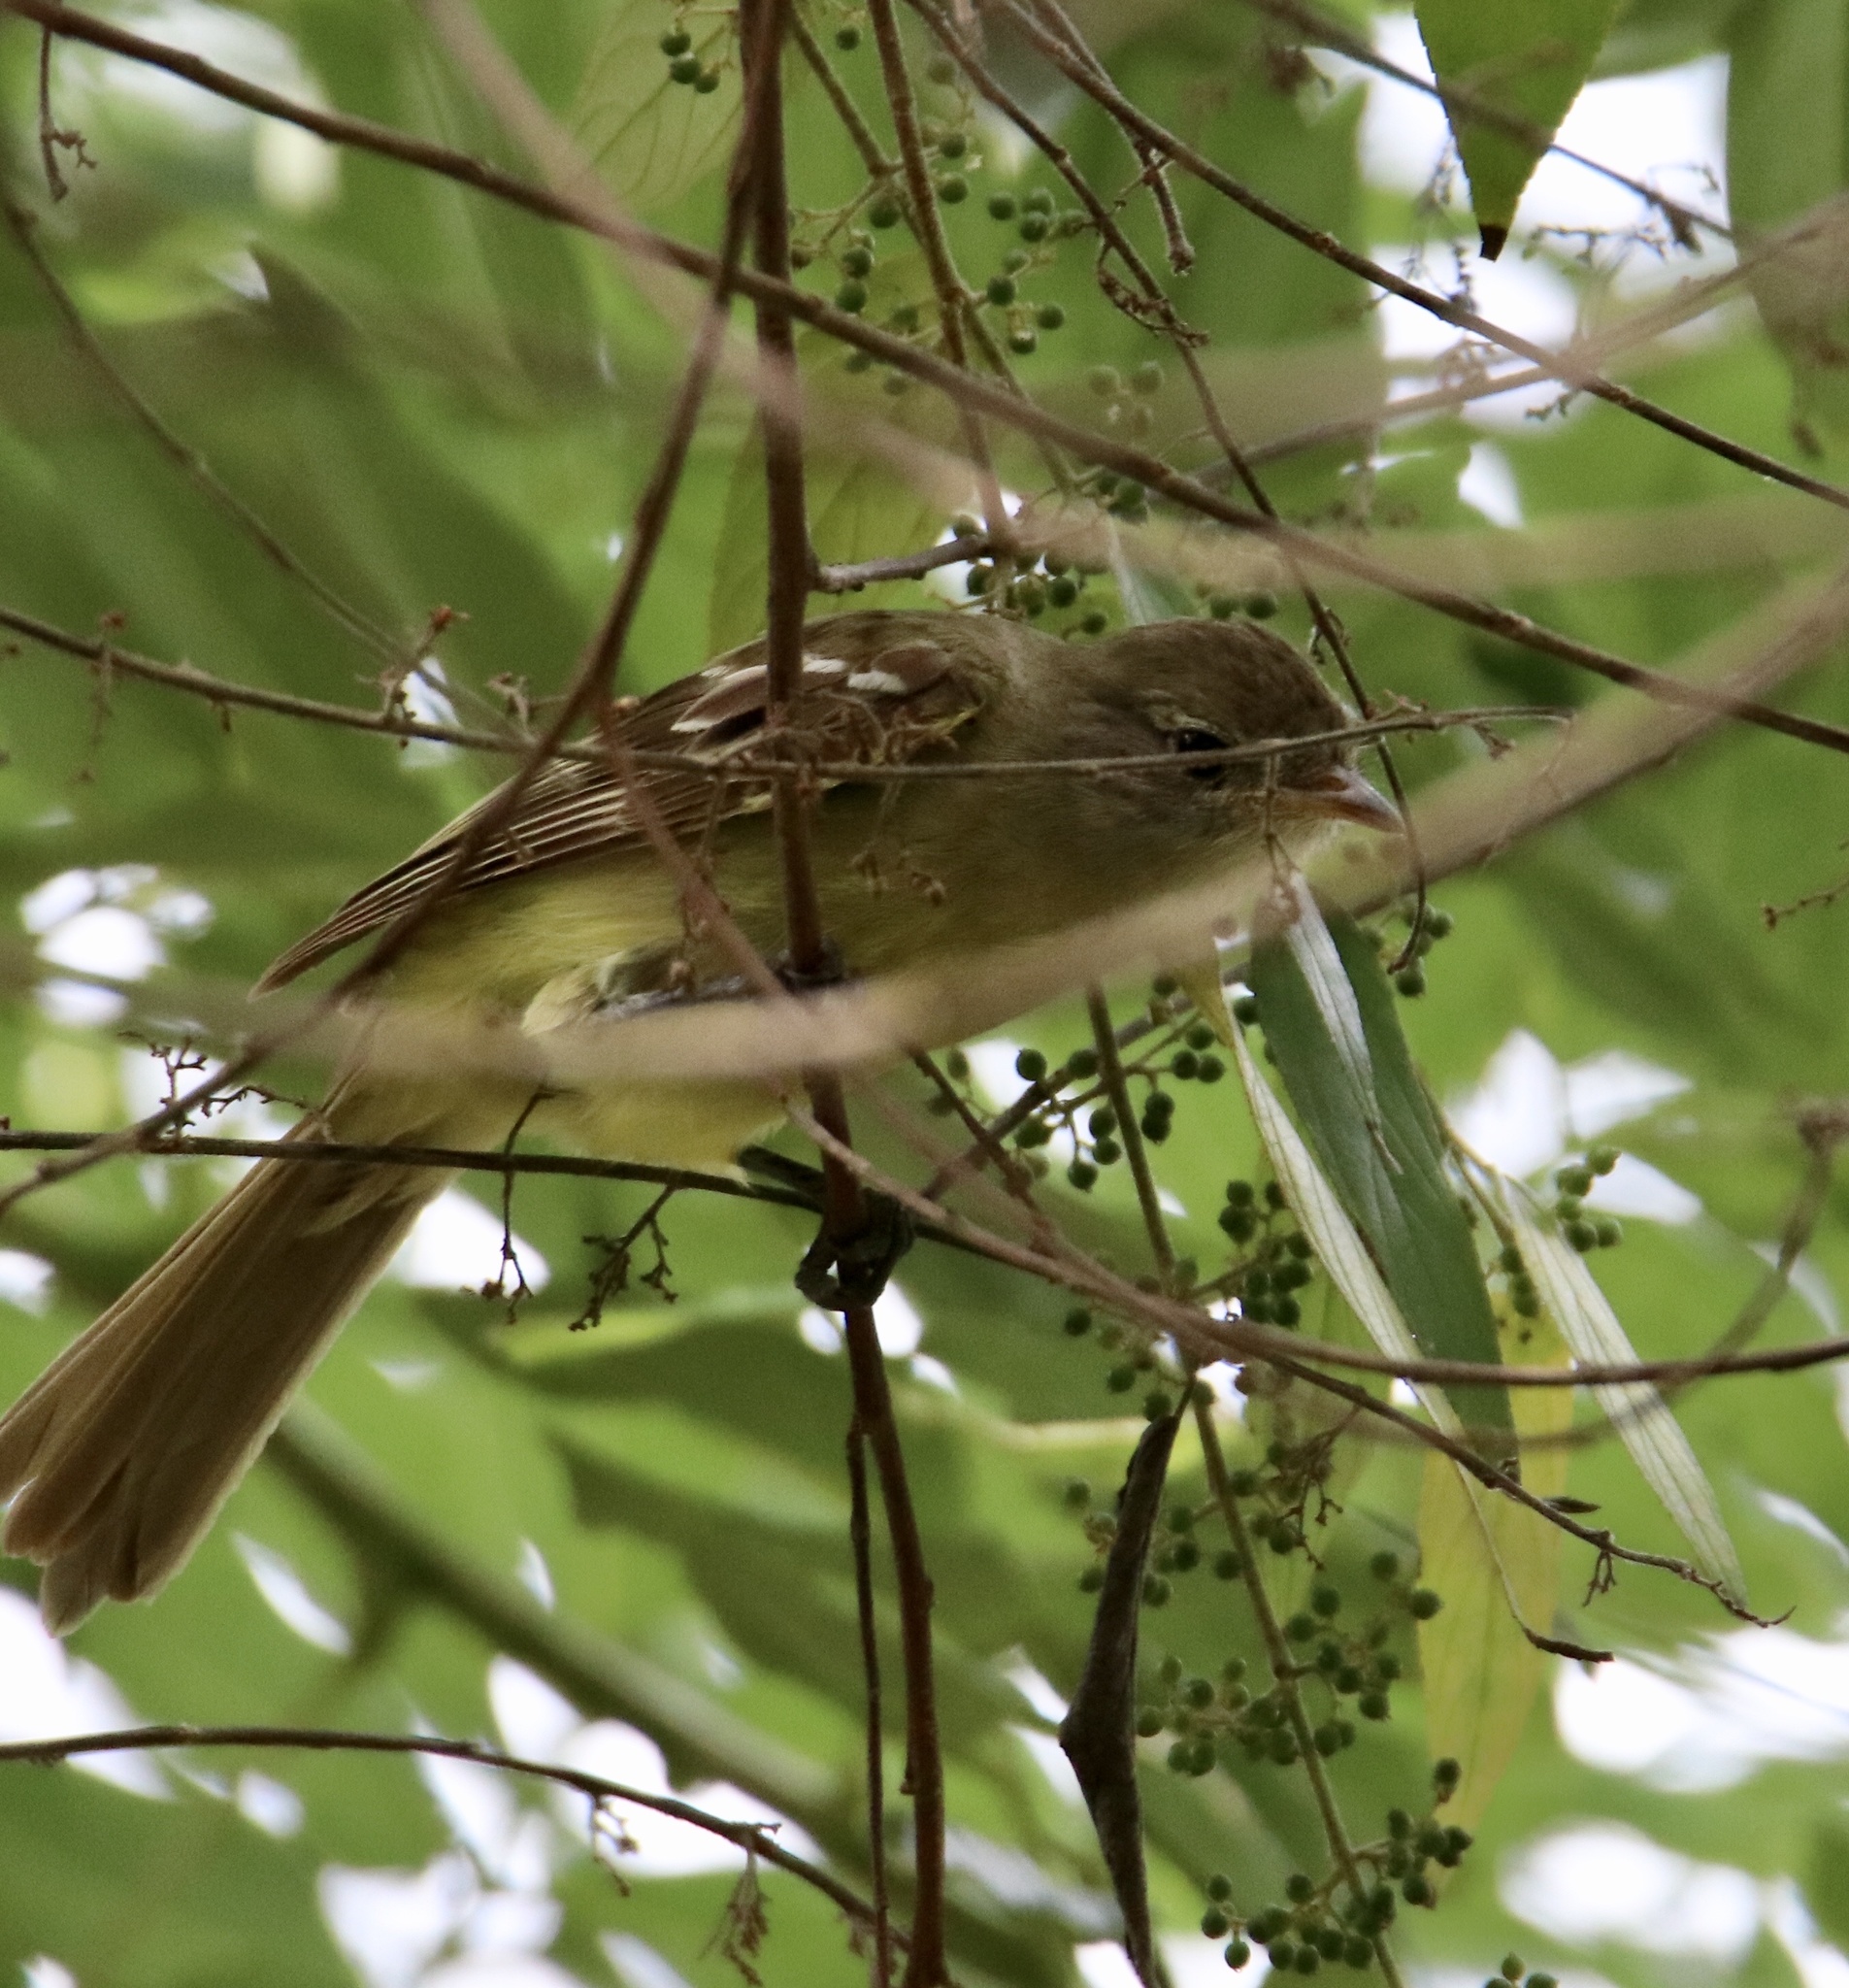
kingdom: Animalia
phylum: Chordata
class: Aves
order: Passeriformes
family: Tyrannidae
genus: Elaenia
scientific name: Elaenia flavogaster
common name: Yellow-bellied elaenia
